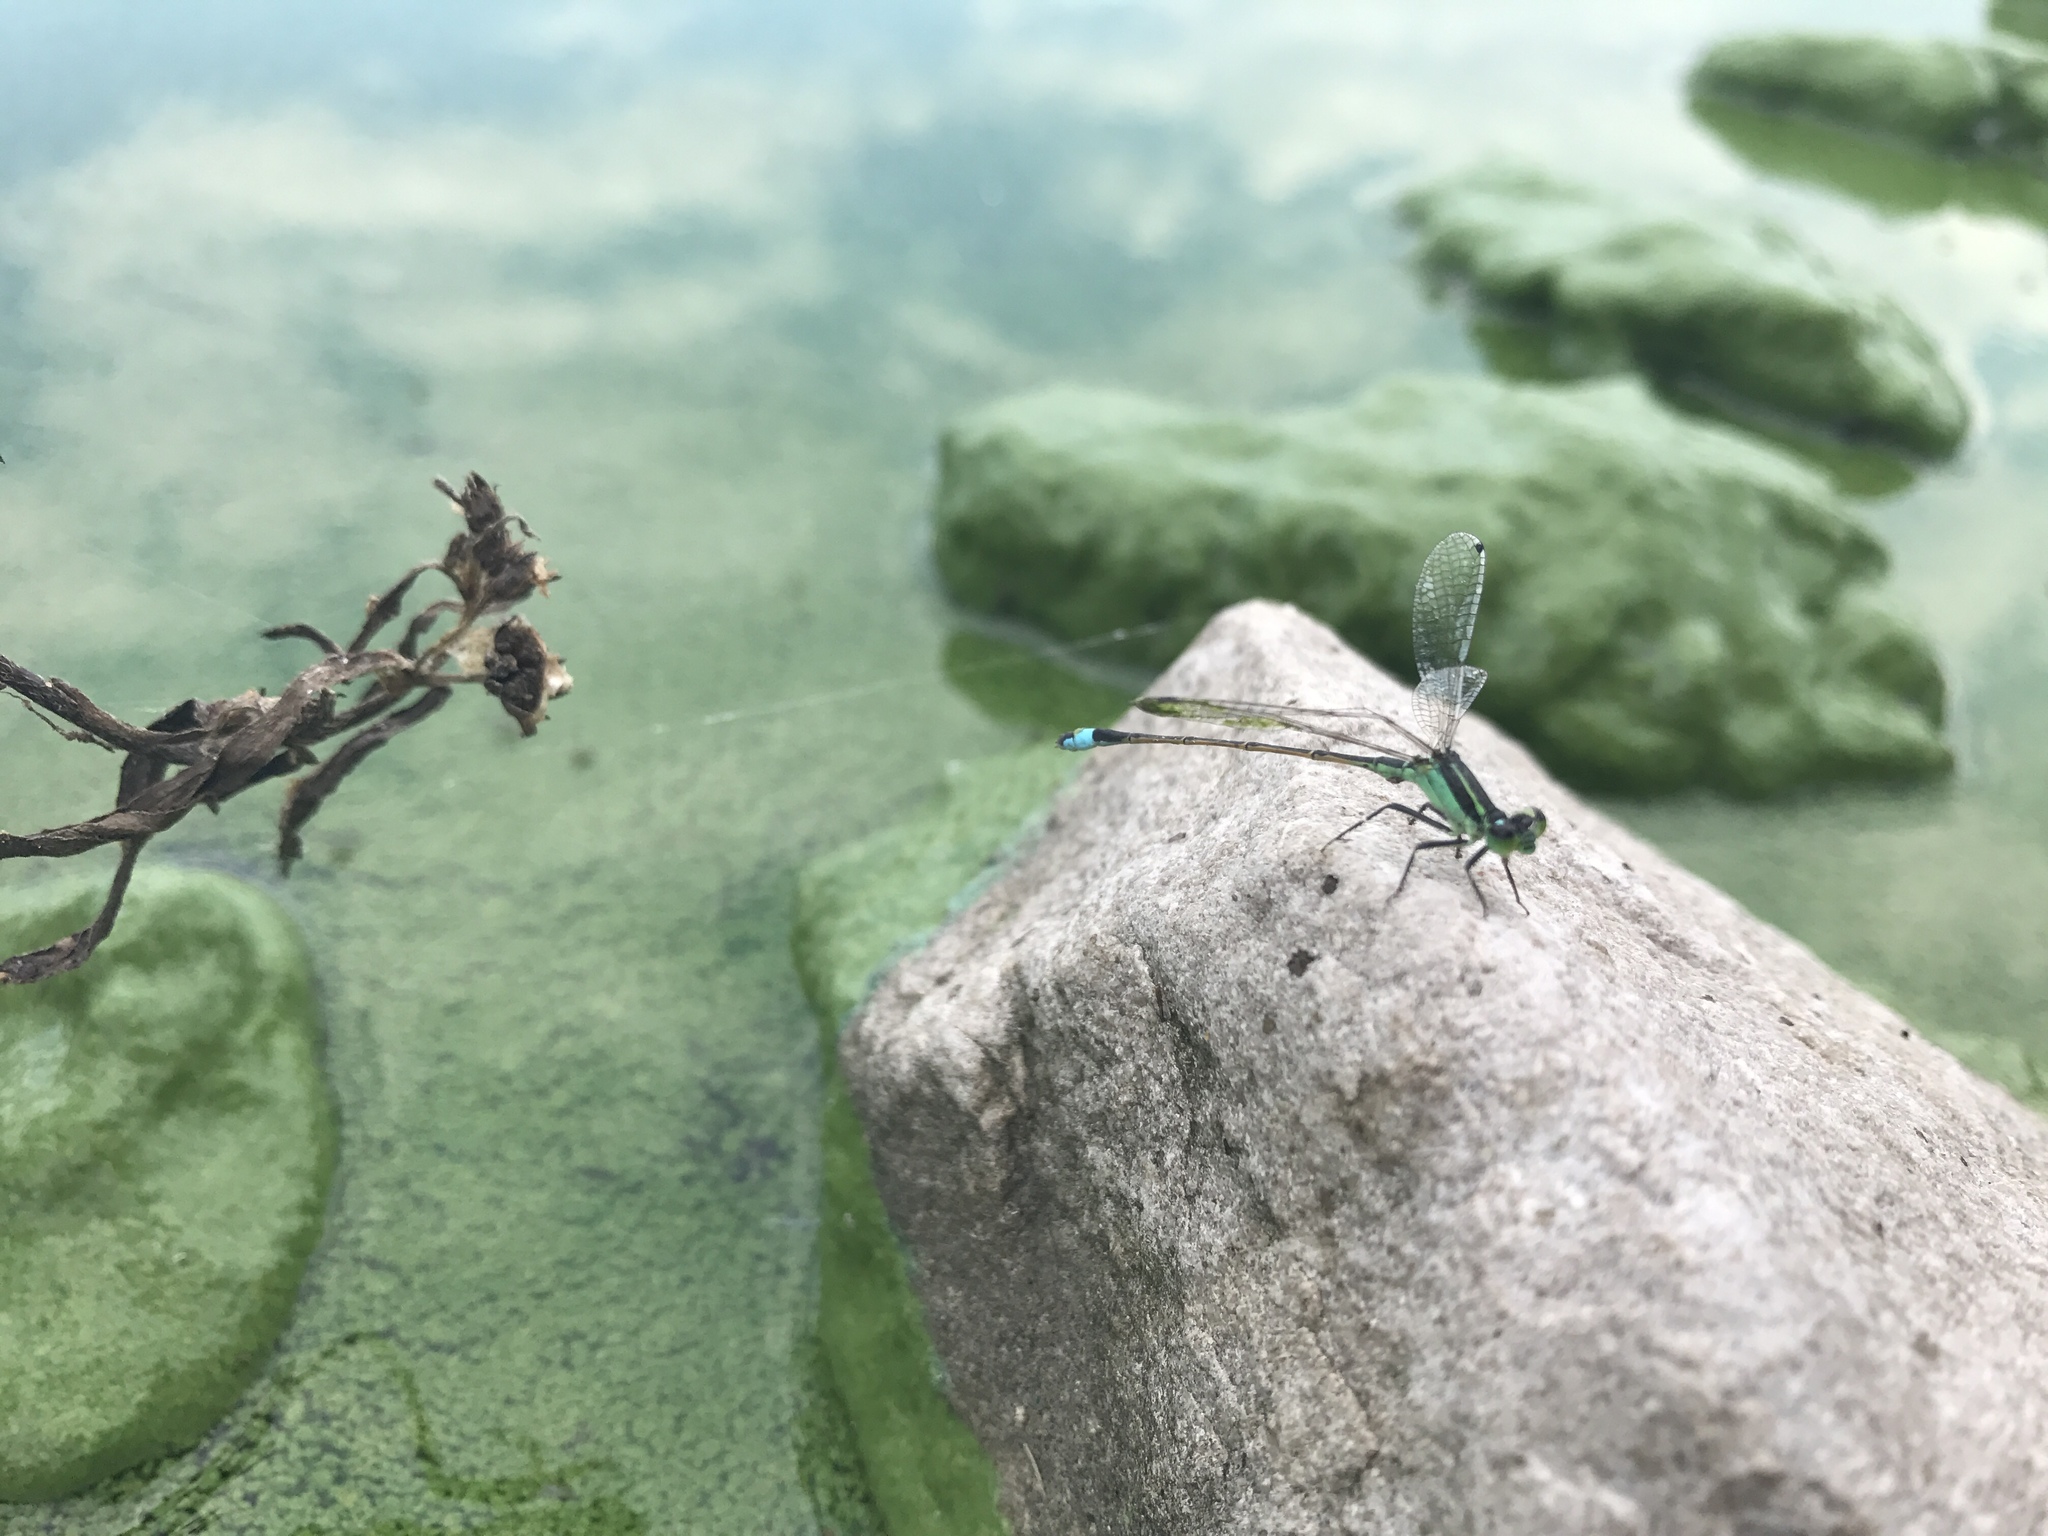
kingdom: Animalia
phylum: Arthropoda
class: Insecta
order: Odonata
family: Coenagrionidae
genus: Ischnura
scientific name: Ischnura ramburii
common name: Rambur's forktail
